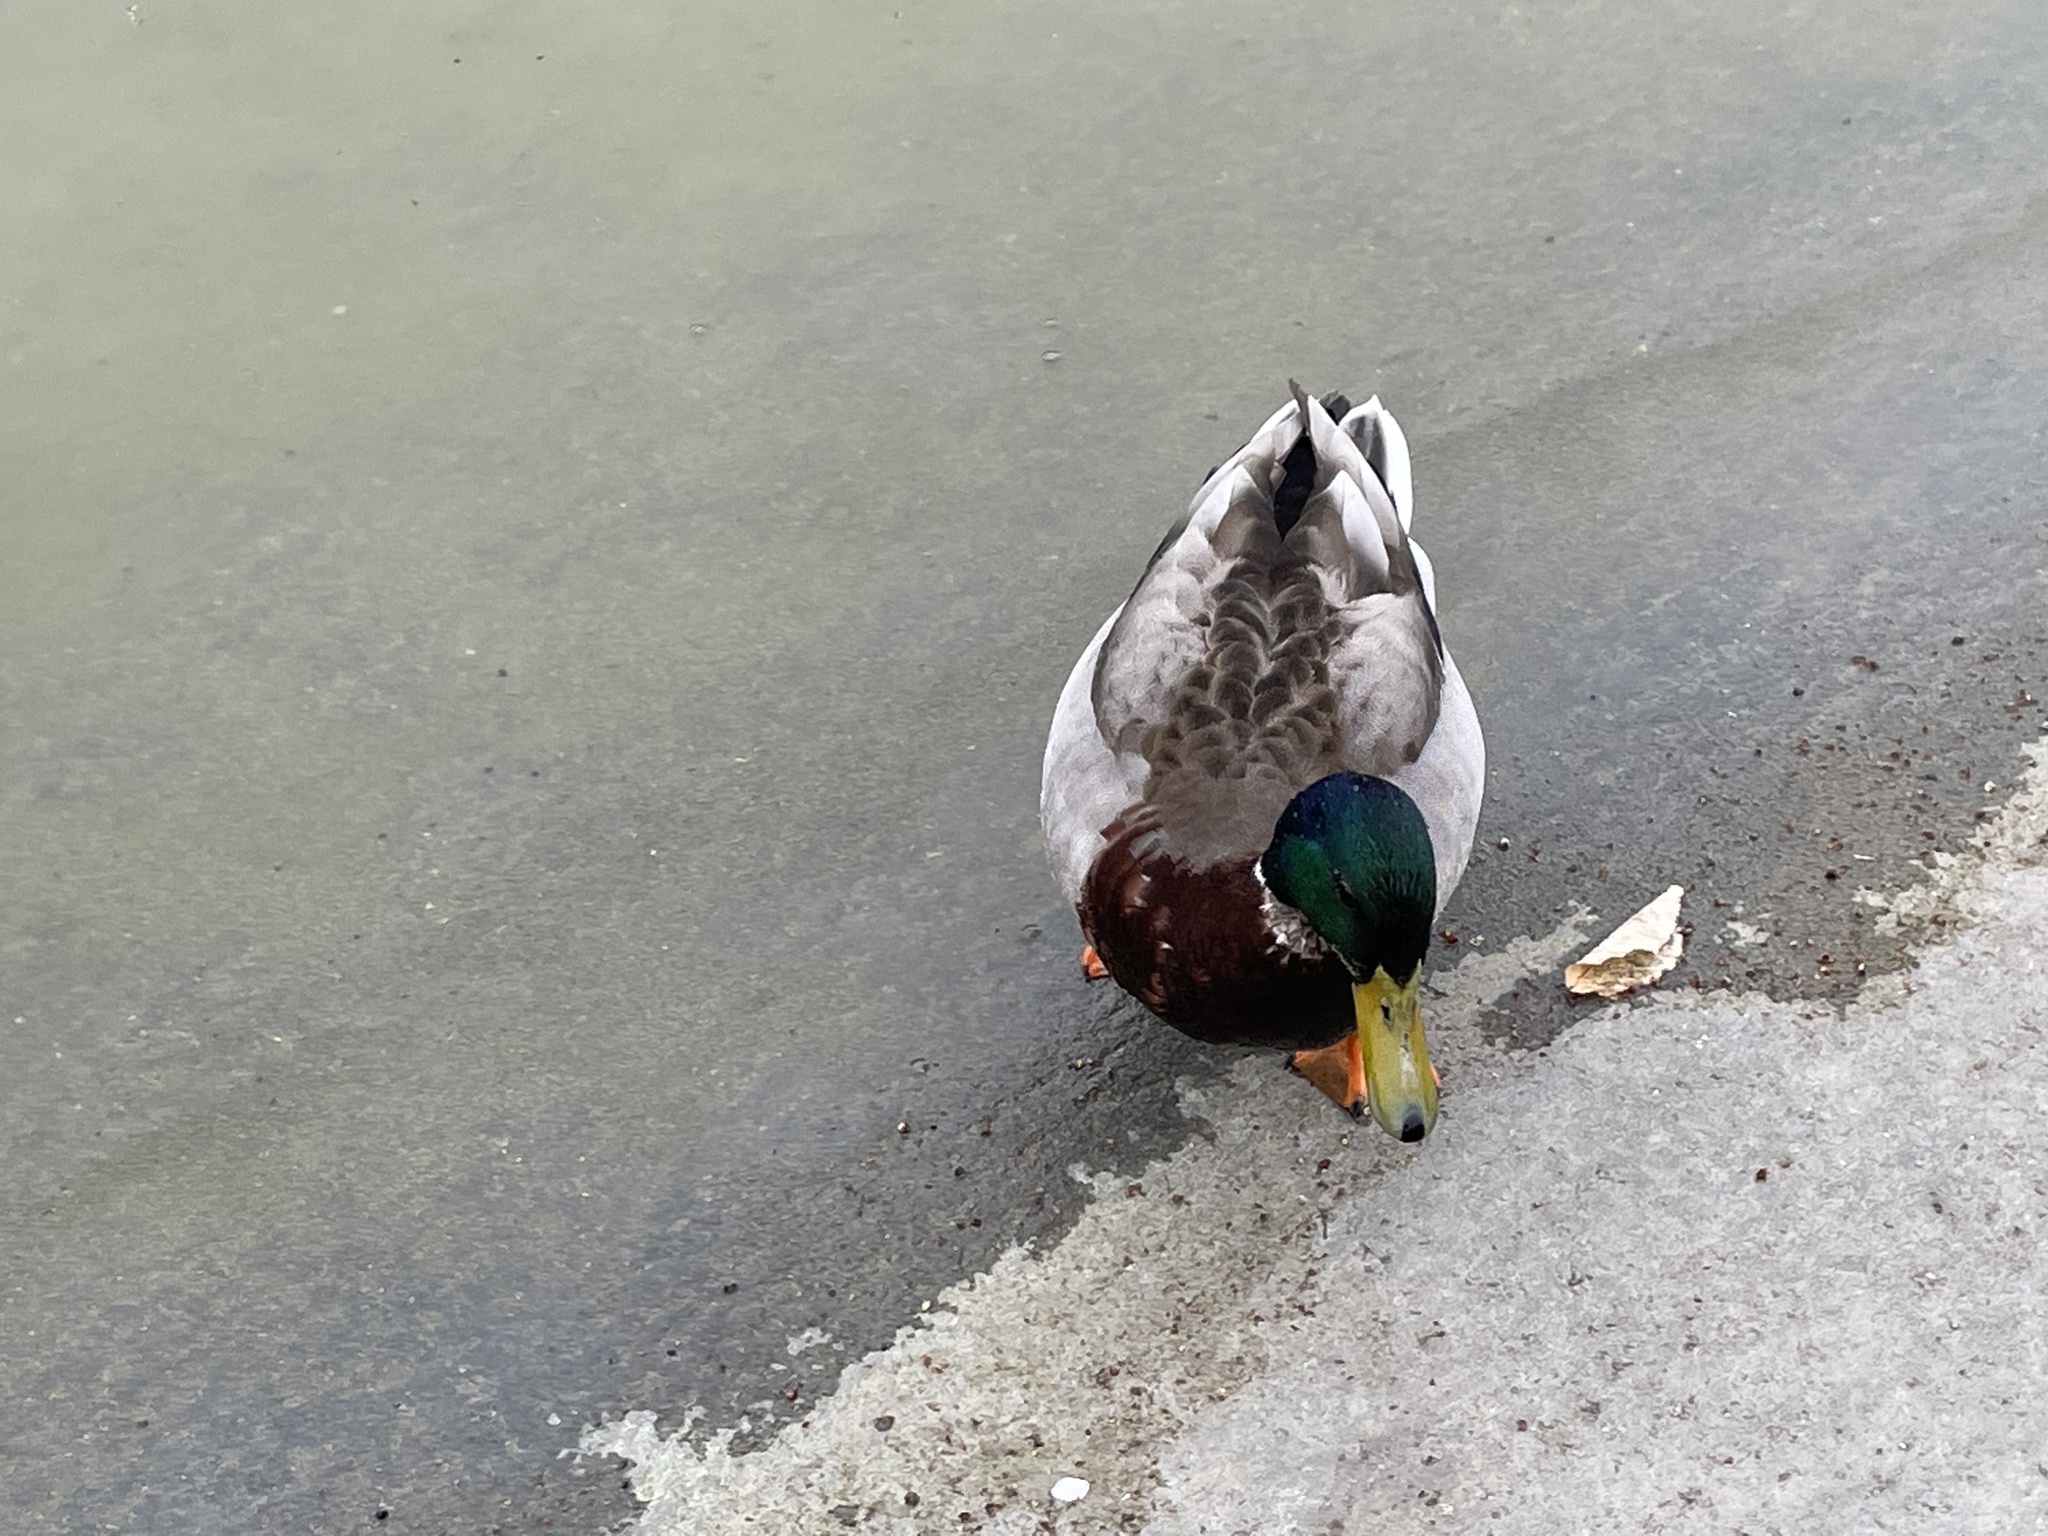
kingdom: Animalia
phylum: Chordata
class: Aves
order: Anseriformes
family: Anatidae
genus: Anas
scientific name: Anas platyrhynchos
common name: Mallard
